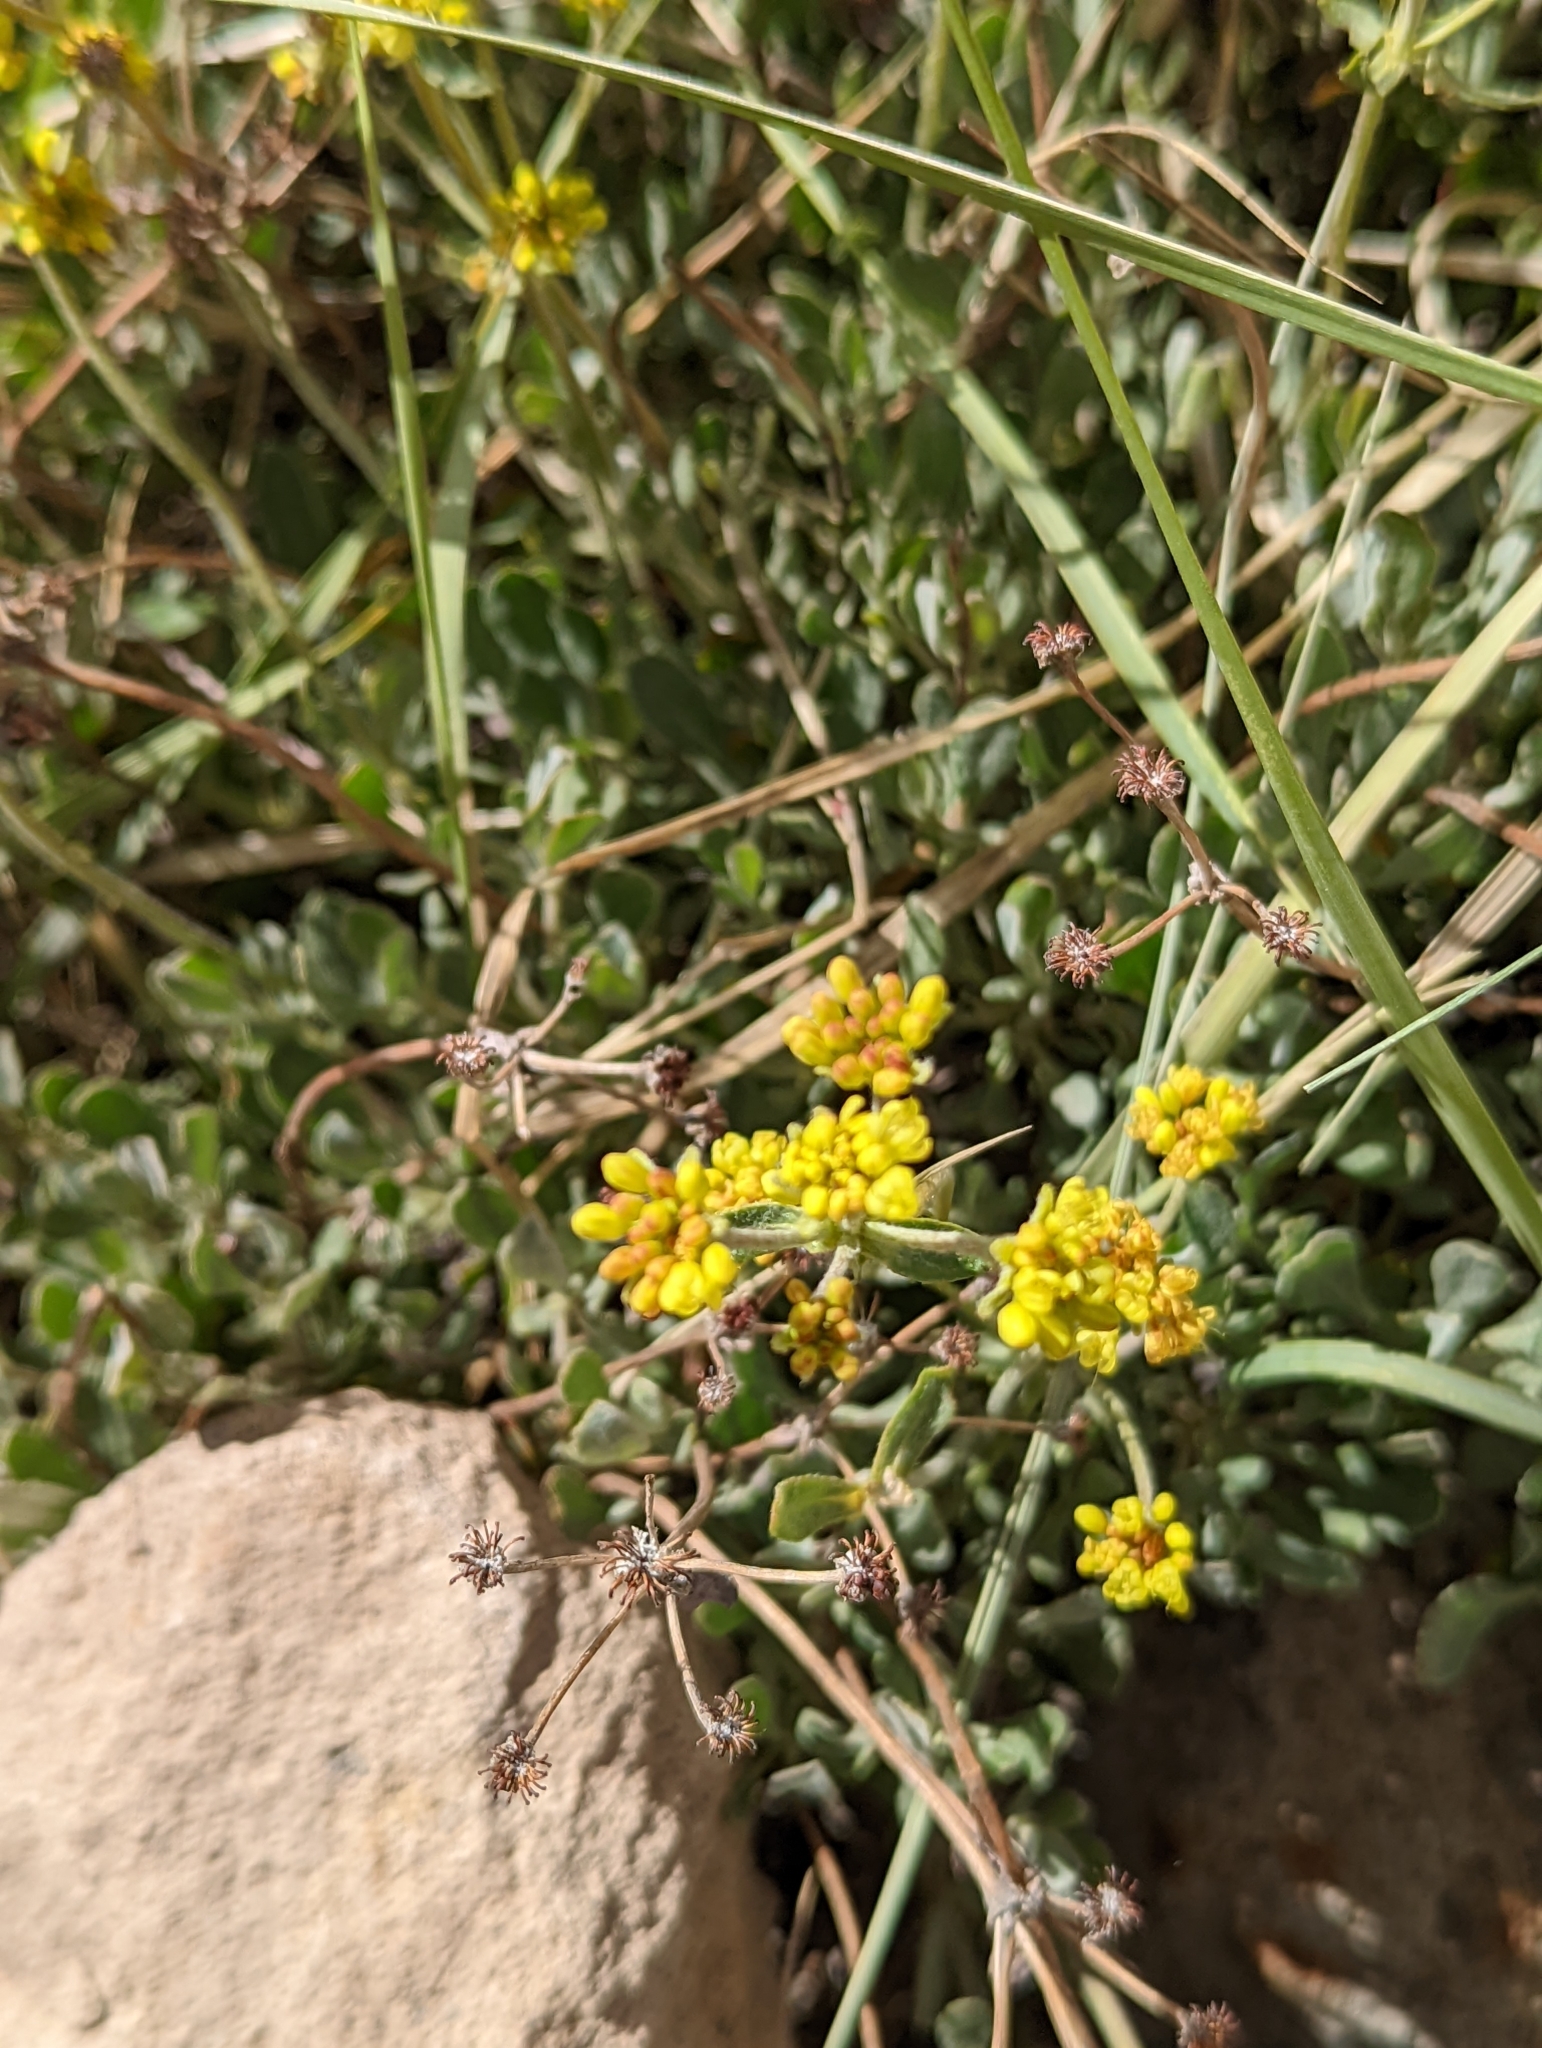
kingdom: Plantae
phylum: Tracheophyta
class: Magnoliopsida
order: Caryophyllales
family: Polygonaceae
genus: Eriogonum
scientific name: Eriogonum umbellatum
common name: Sulfur-buckwheat
